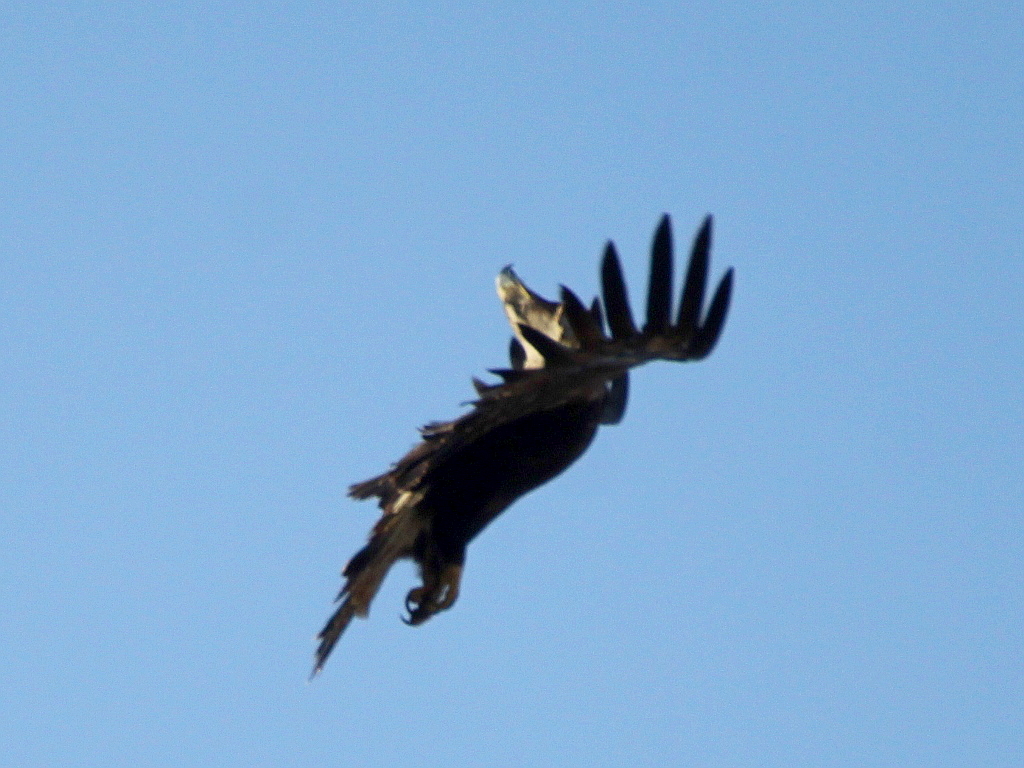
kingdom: Animalia
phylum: Chordata
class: Aves
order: Accipitriformes
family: Accipitridae
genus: Aquila
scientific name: Aquila heliaca
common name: Eastern imperial eagle
